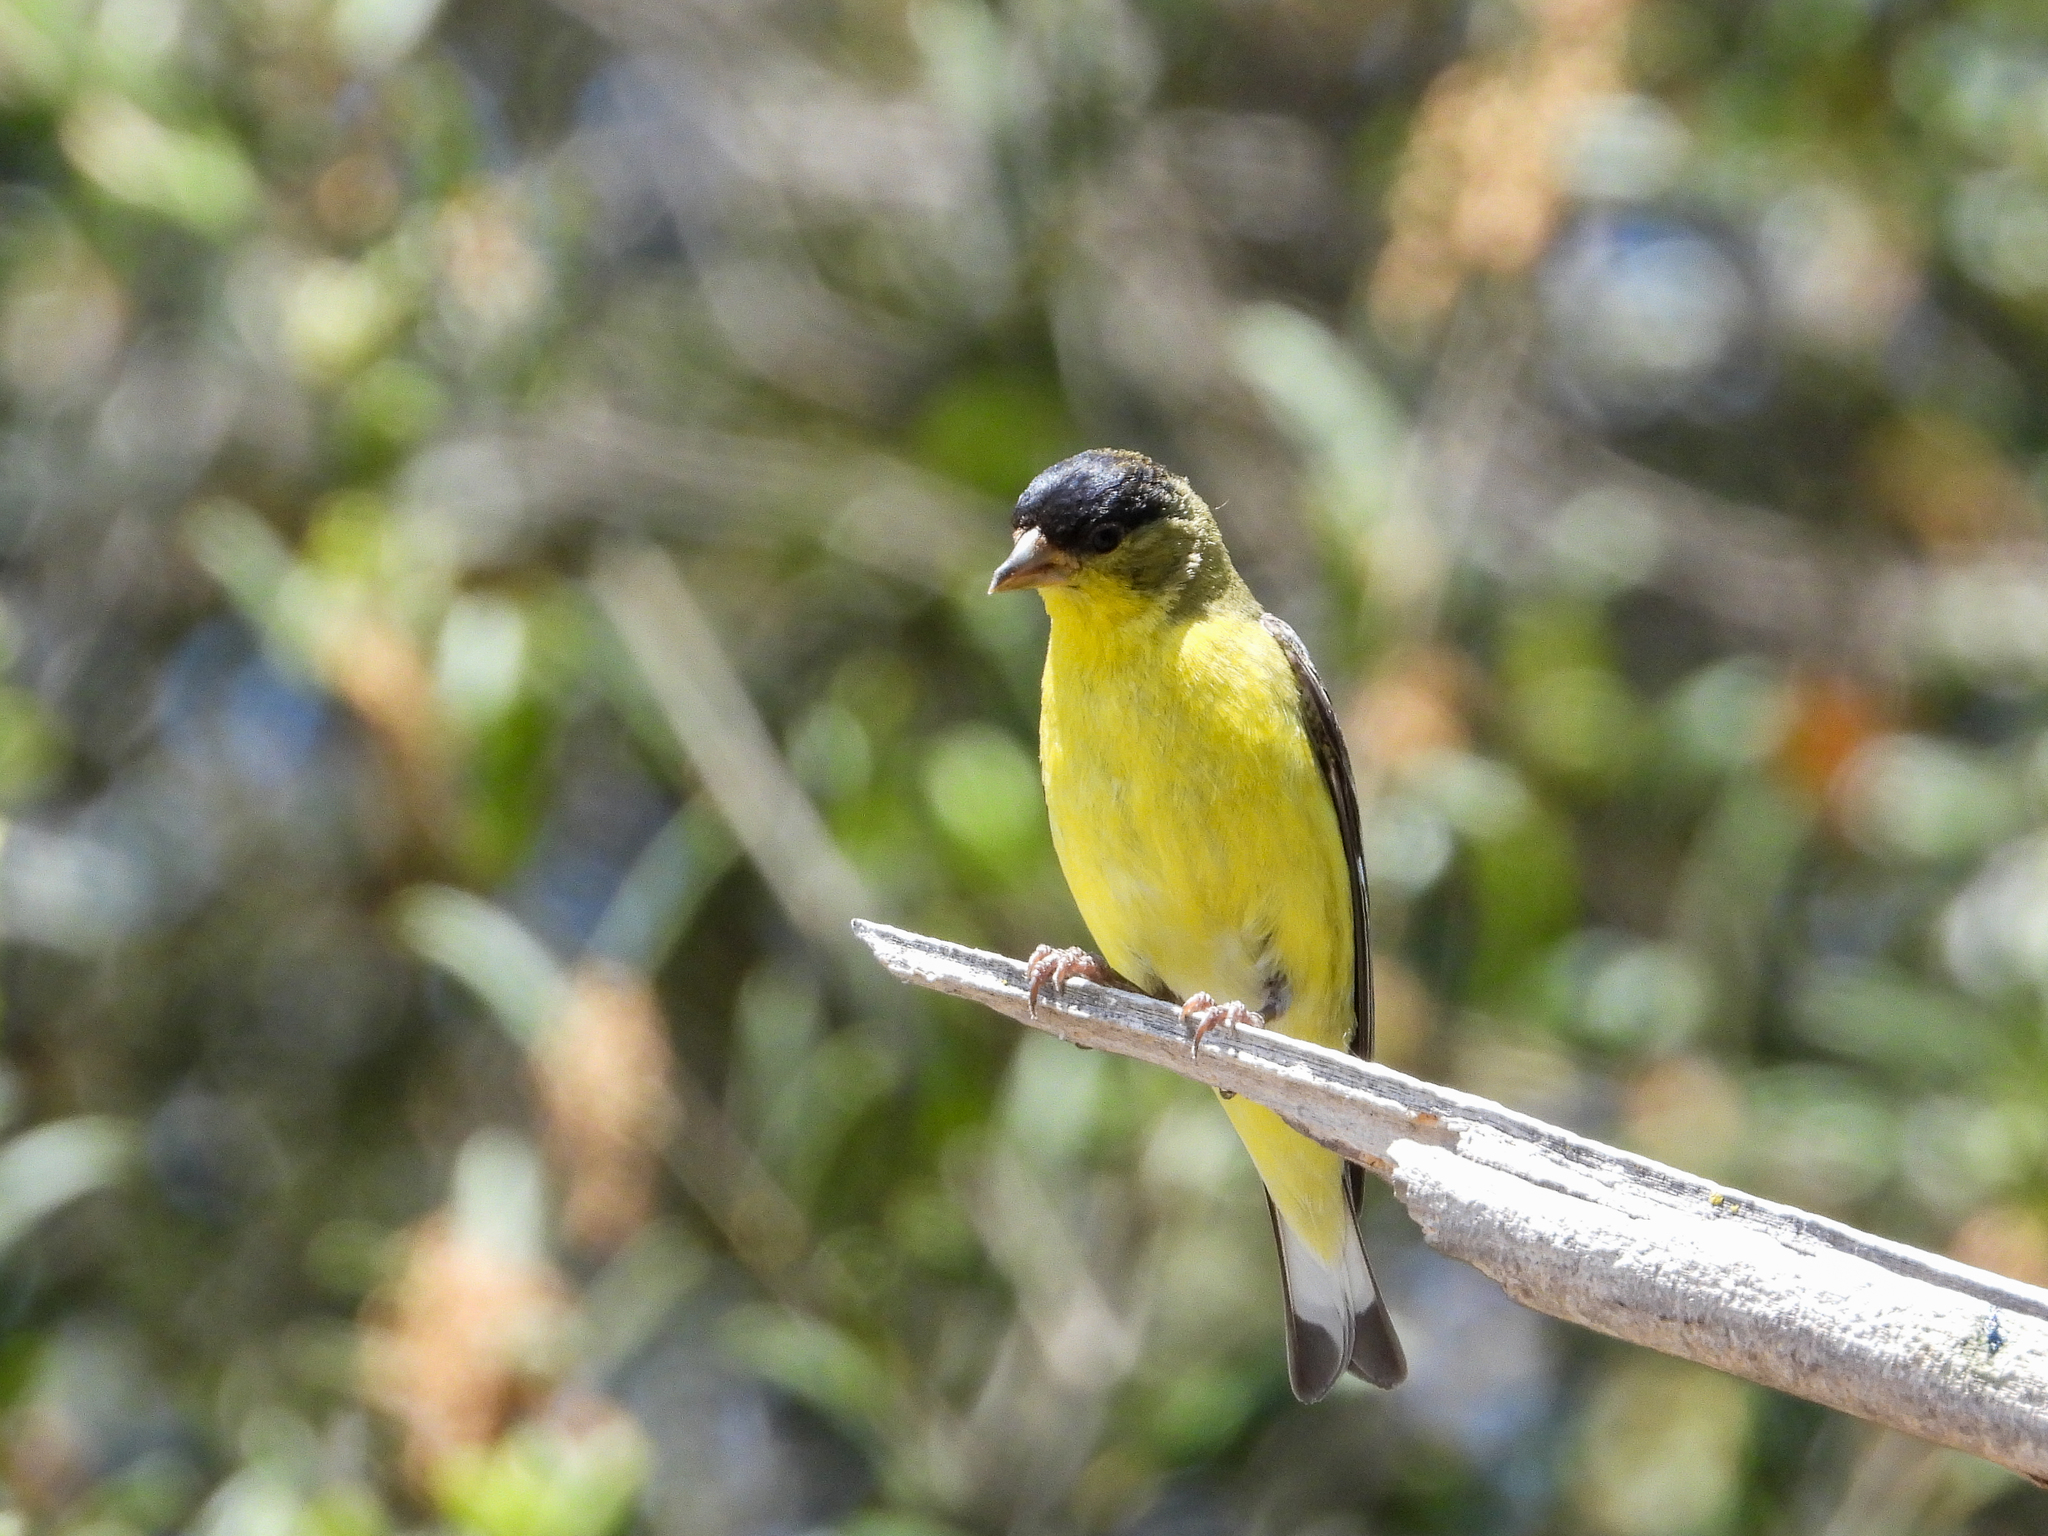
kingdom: Animalia
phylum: Chordata
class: Aves
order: Passeriformes
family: Fringillidae
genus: Spinus
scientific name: Spinus psaltria
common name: Lesser goldfinch
